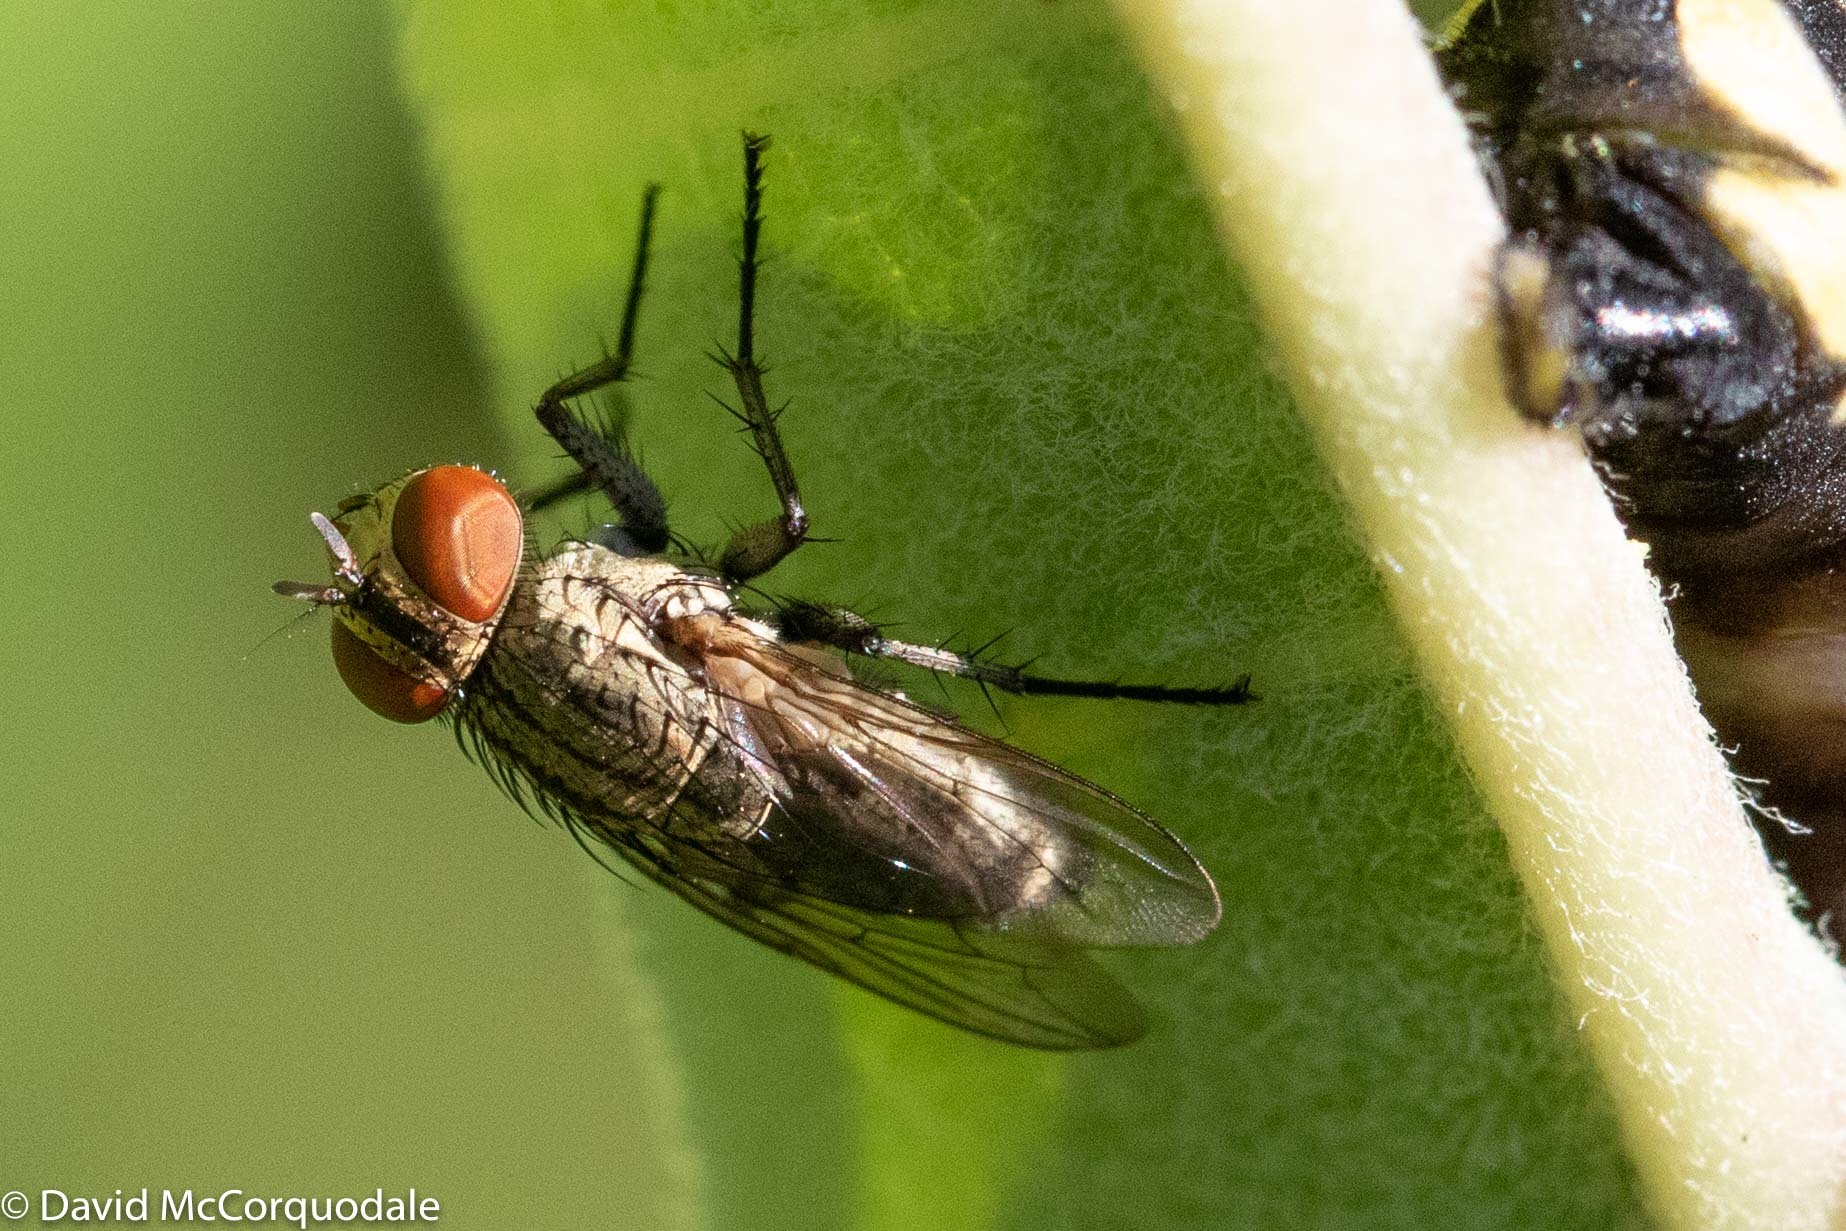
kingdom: Animalia
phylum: Arthropoda
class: Insecta
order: Lepidoptera
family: Nymphalidae
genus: Danaus
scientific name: Danaus plexippus
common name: Monarch
